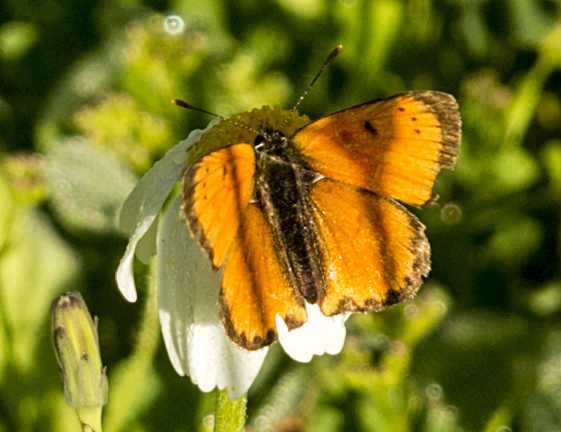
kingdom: Animalia
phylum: Arthropoda
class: Insecta
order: Lepidoptera
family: Lycaenidae
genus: Polyommatus
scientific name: Polyommatus ottomanus
